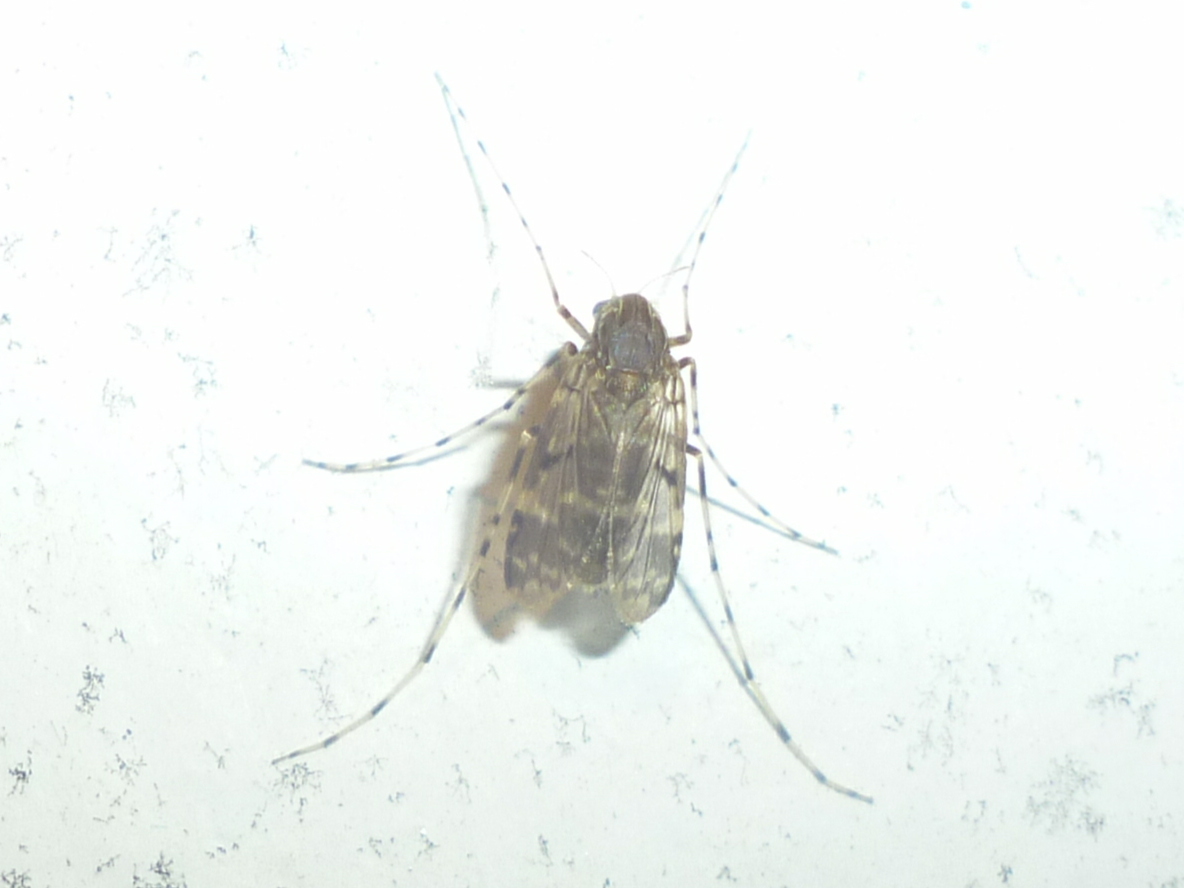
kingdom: Animalia
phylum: Arthropoda
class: Insecta
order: Diptera
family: Chironomidae
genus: Ablabesmyia
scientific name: Ablabesmyia annulata
